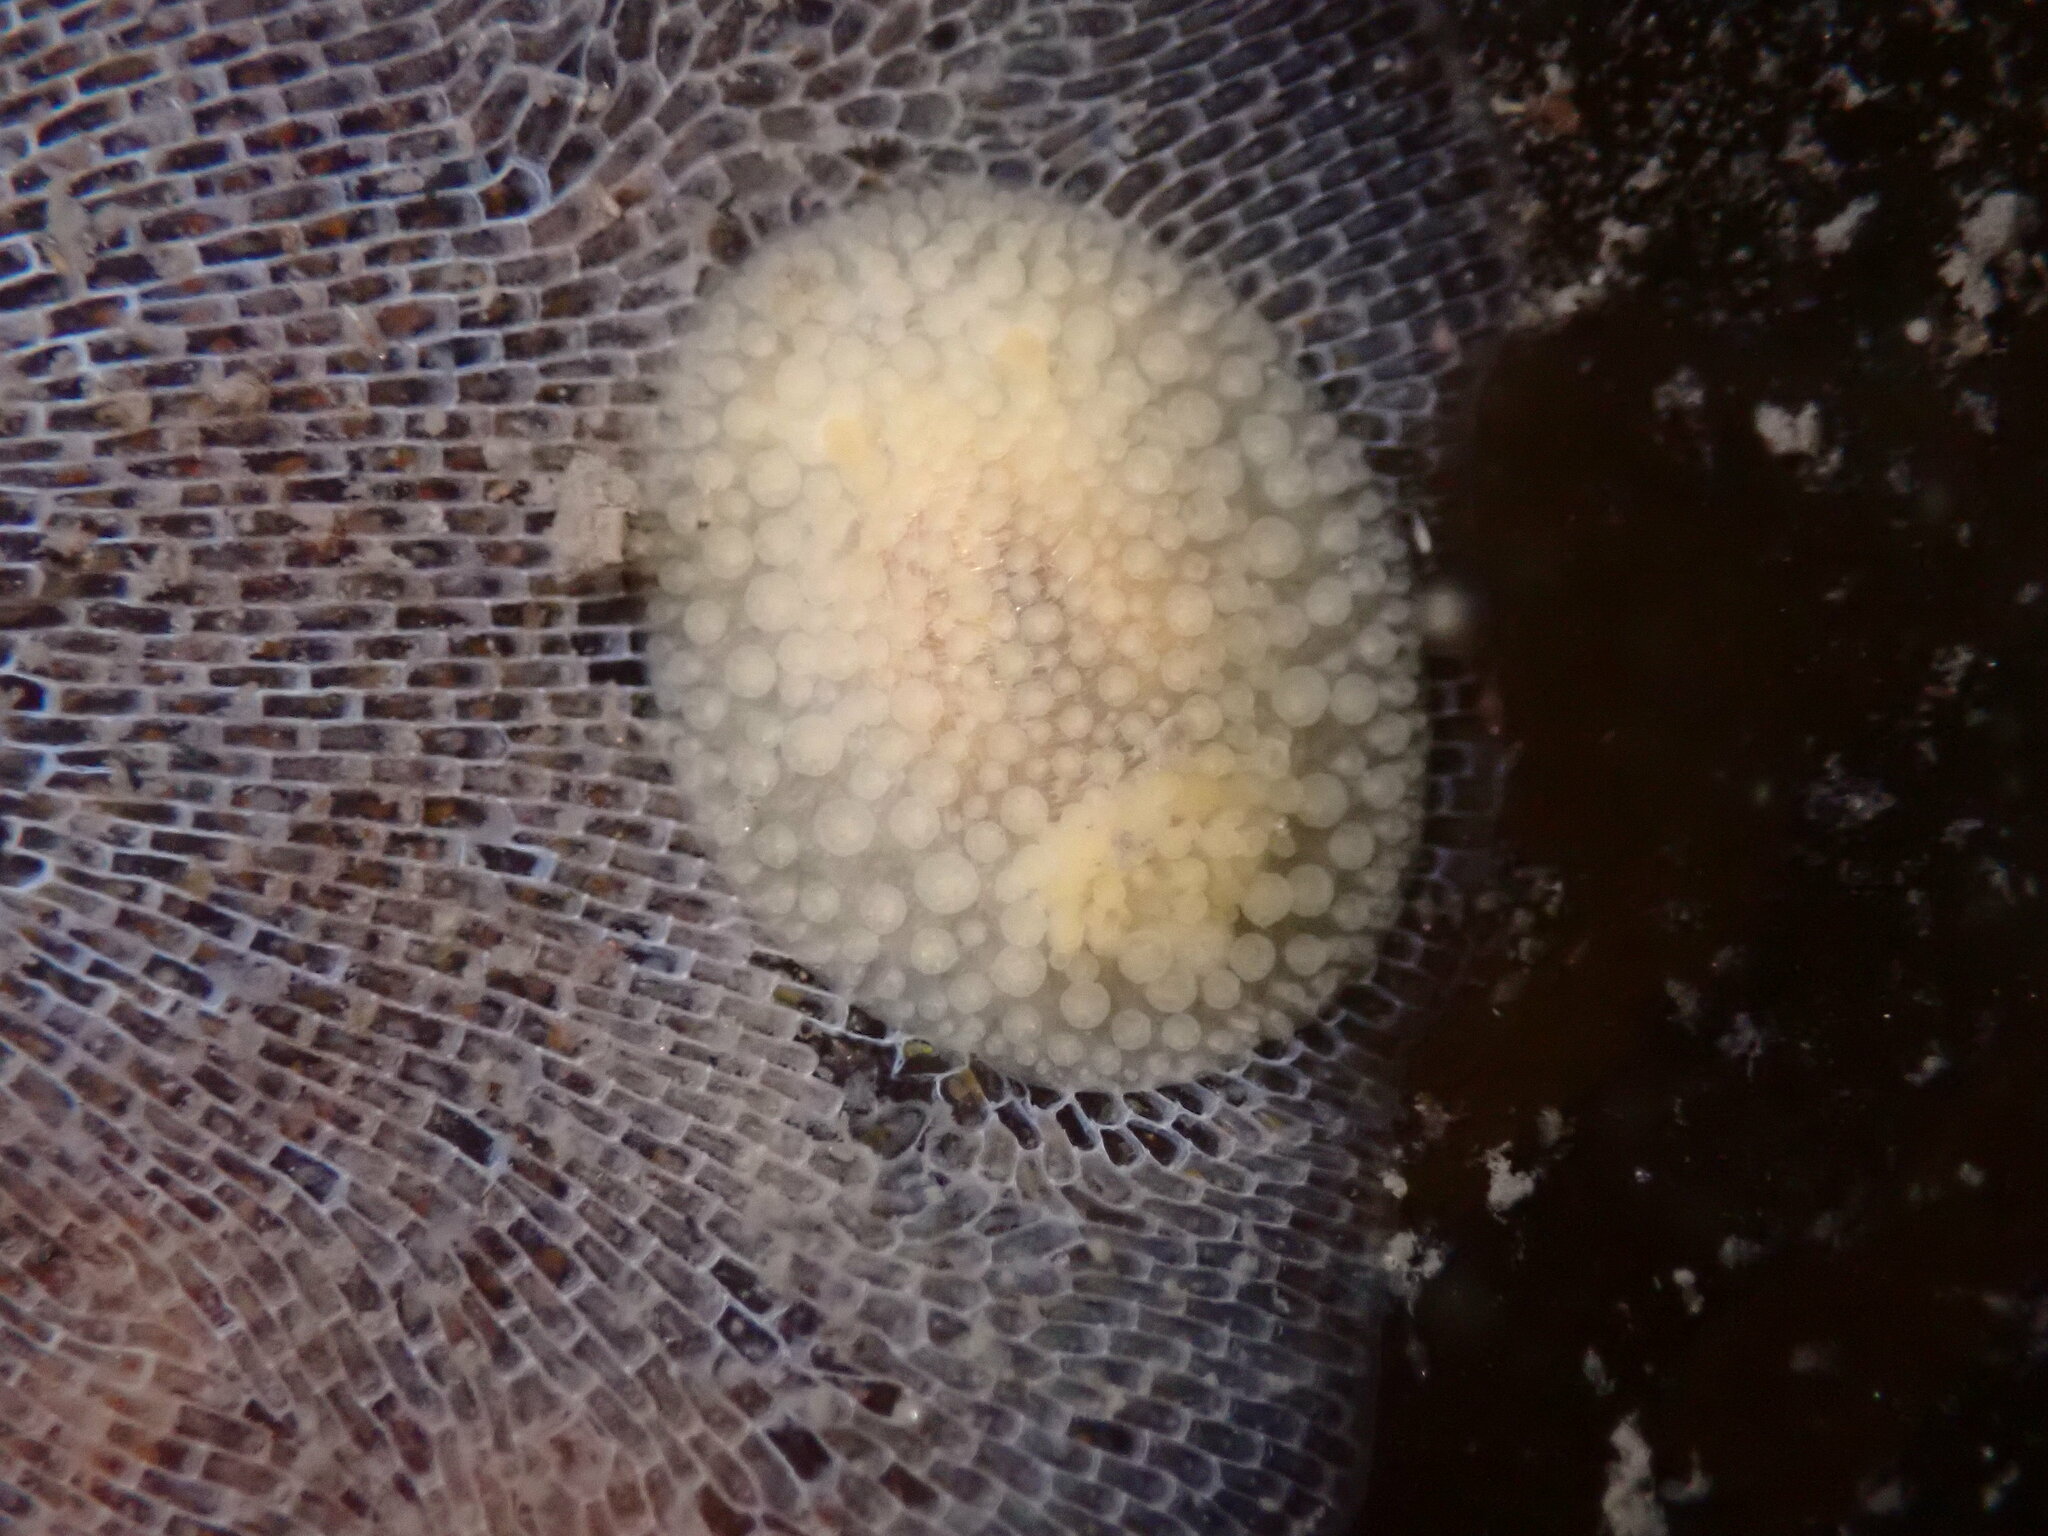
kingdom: Animalia
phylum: Mollusca
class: Gastropoda
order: Nudibranchia
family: Onchidorididae
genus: Onchidoris
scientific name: Onchidoris muricata
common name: Rough doris
